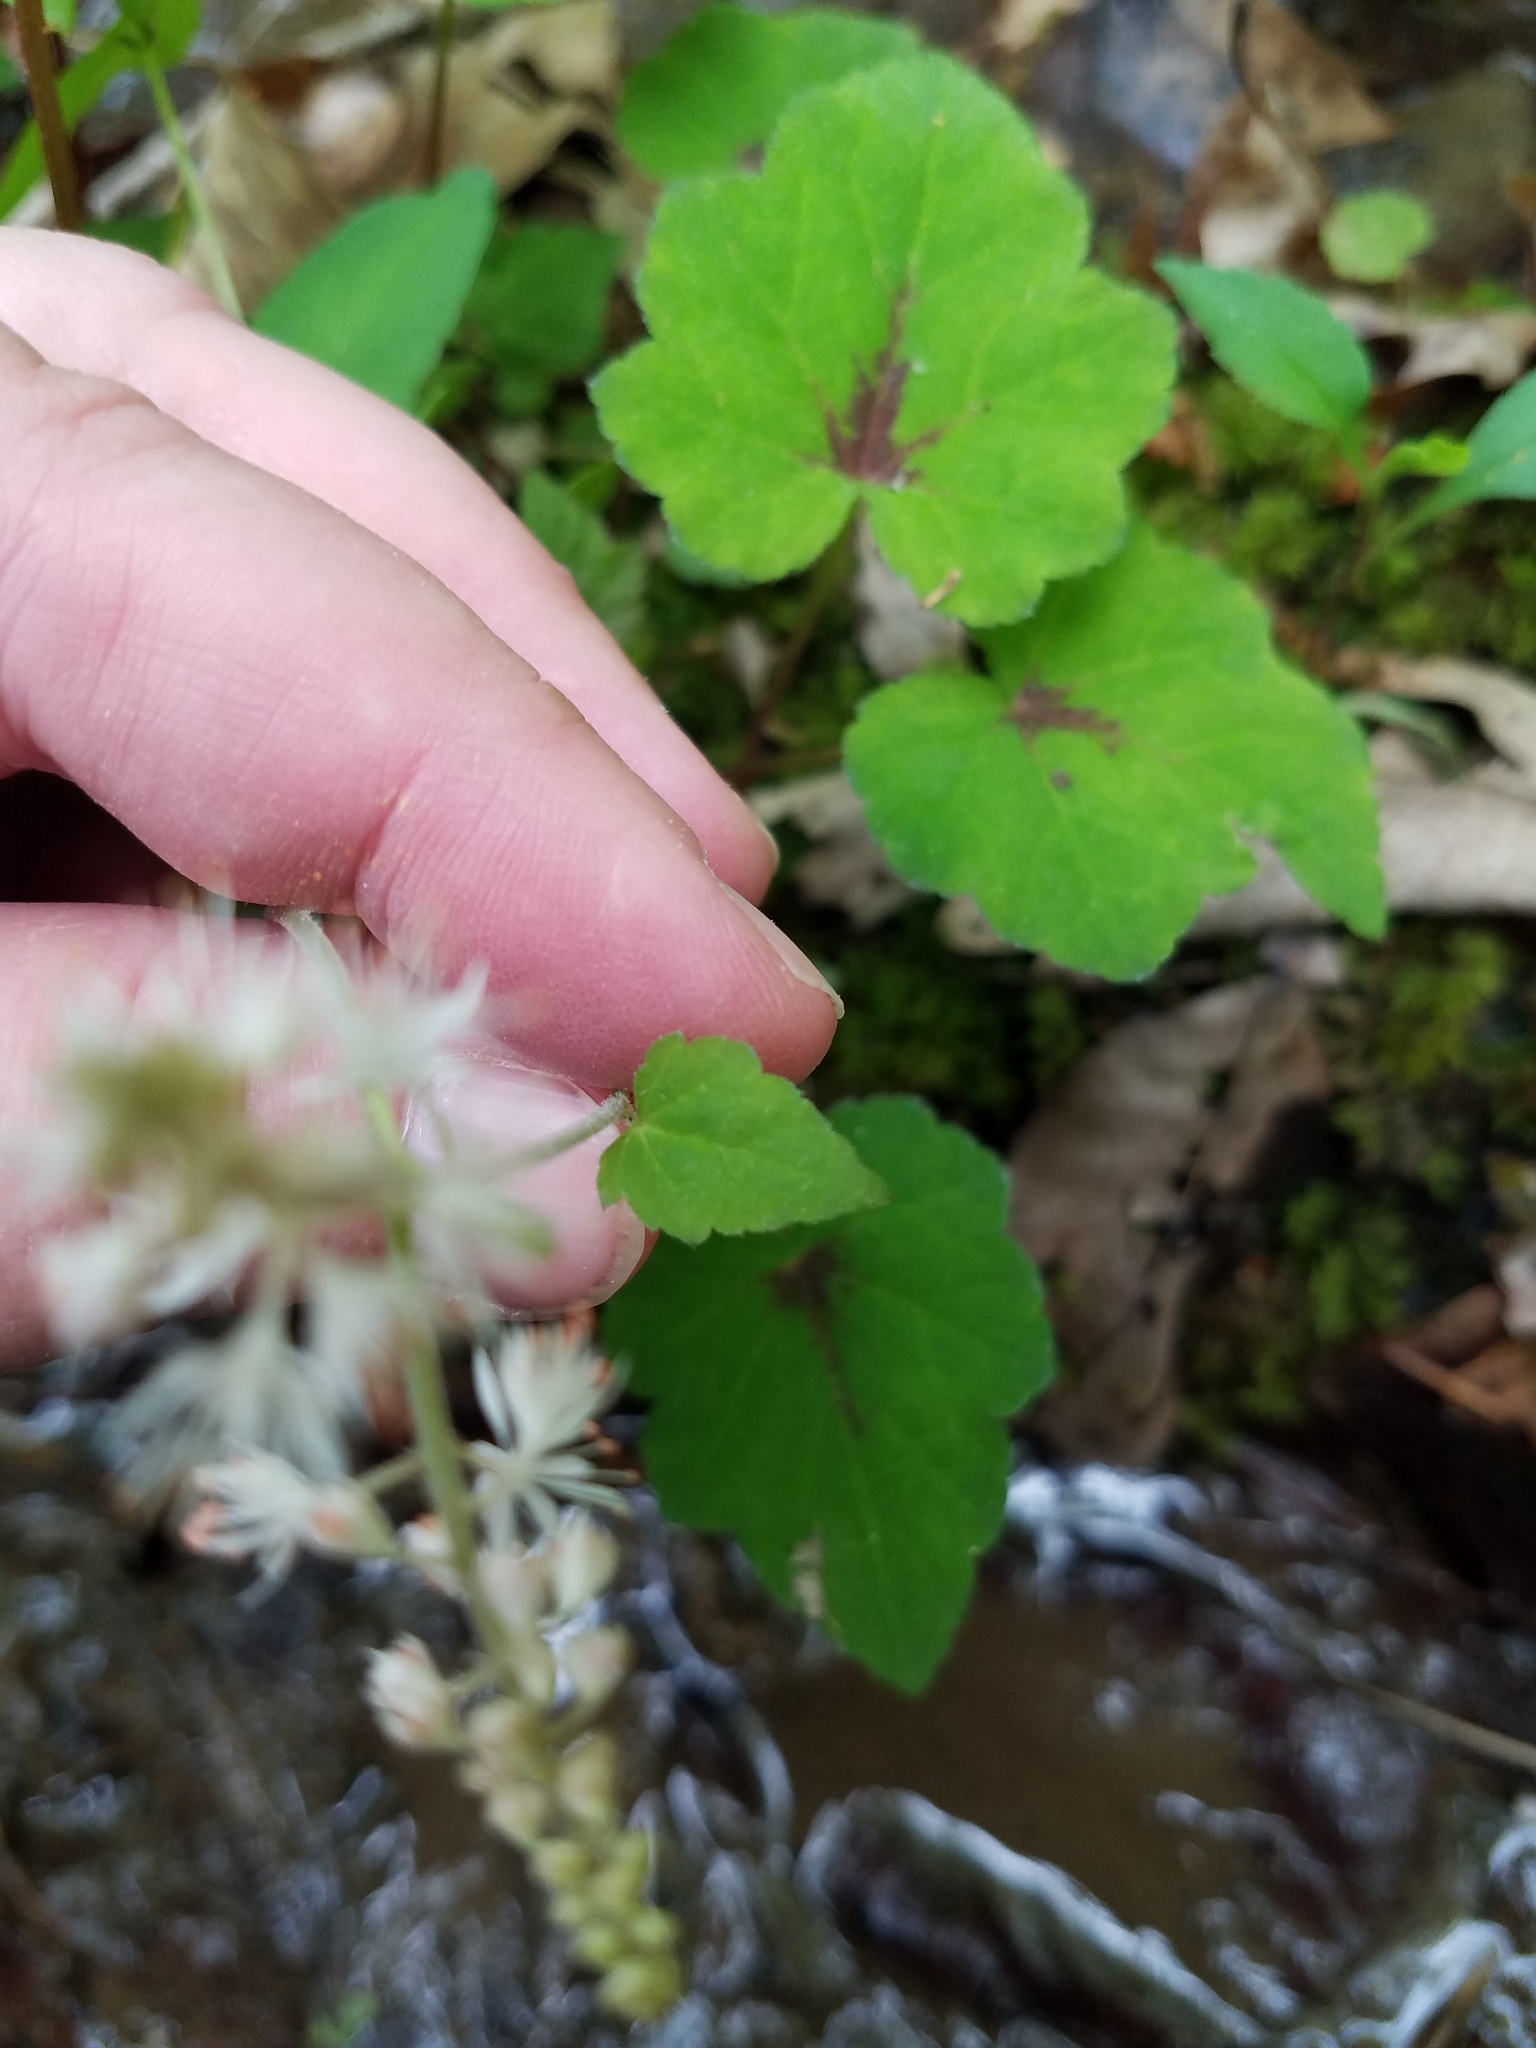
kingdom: Plantae
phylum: Tracheophyta
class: Magnoliopsida
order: Saxifragales
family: Saxifragaceae
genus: Tiarella
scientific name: Tiarella nautila
